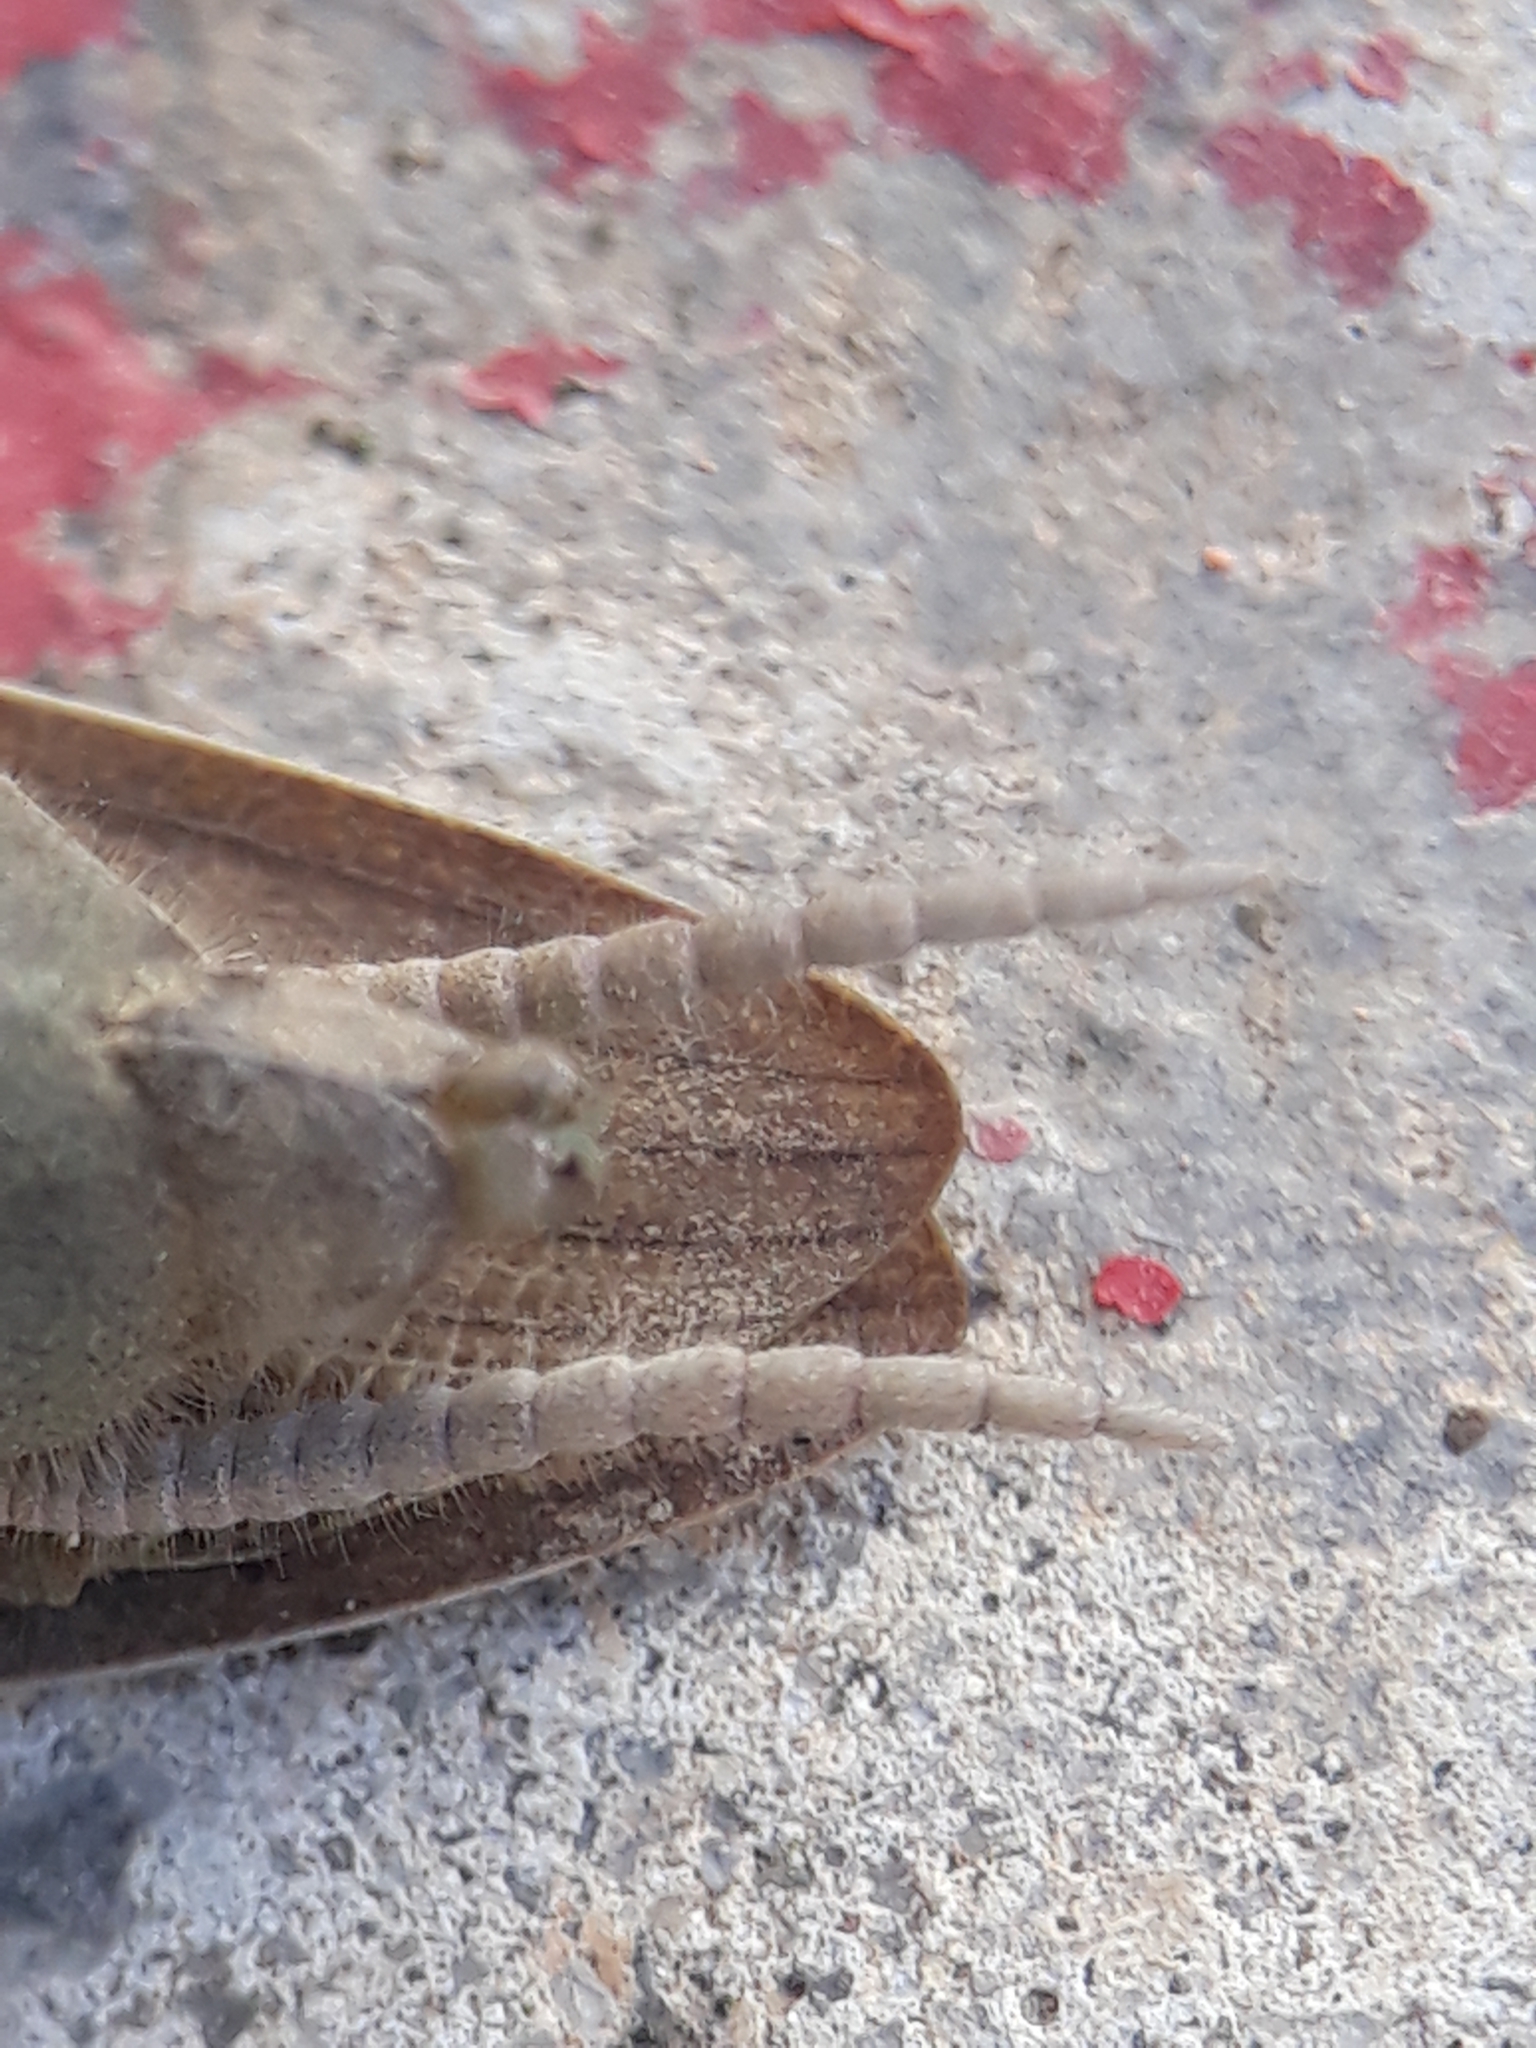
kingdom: Animalia
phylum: Arthropoda
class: Insecta
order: Mantodea
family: Mantidae
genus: Mantis
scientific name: Mantis religiosa
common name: Praying mantis
